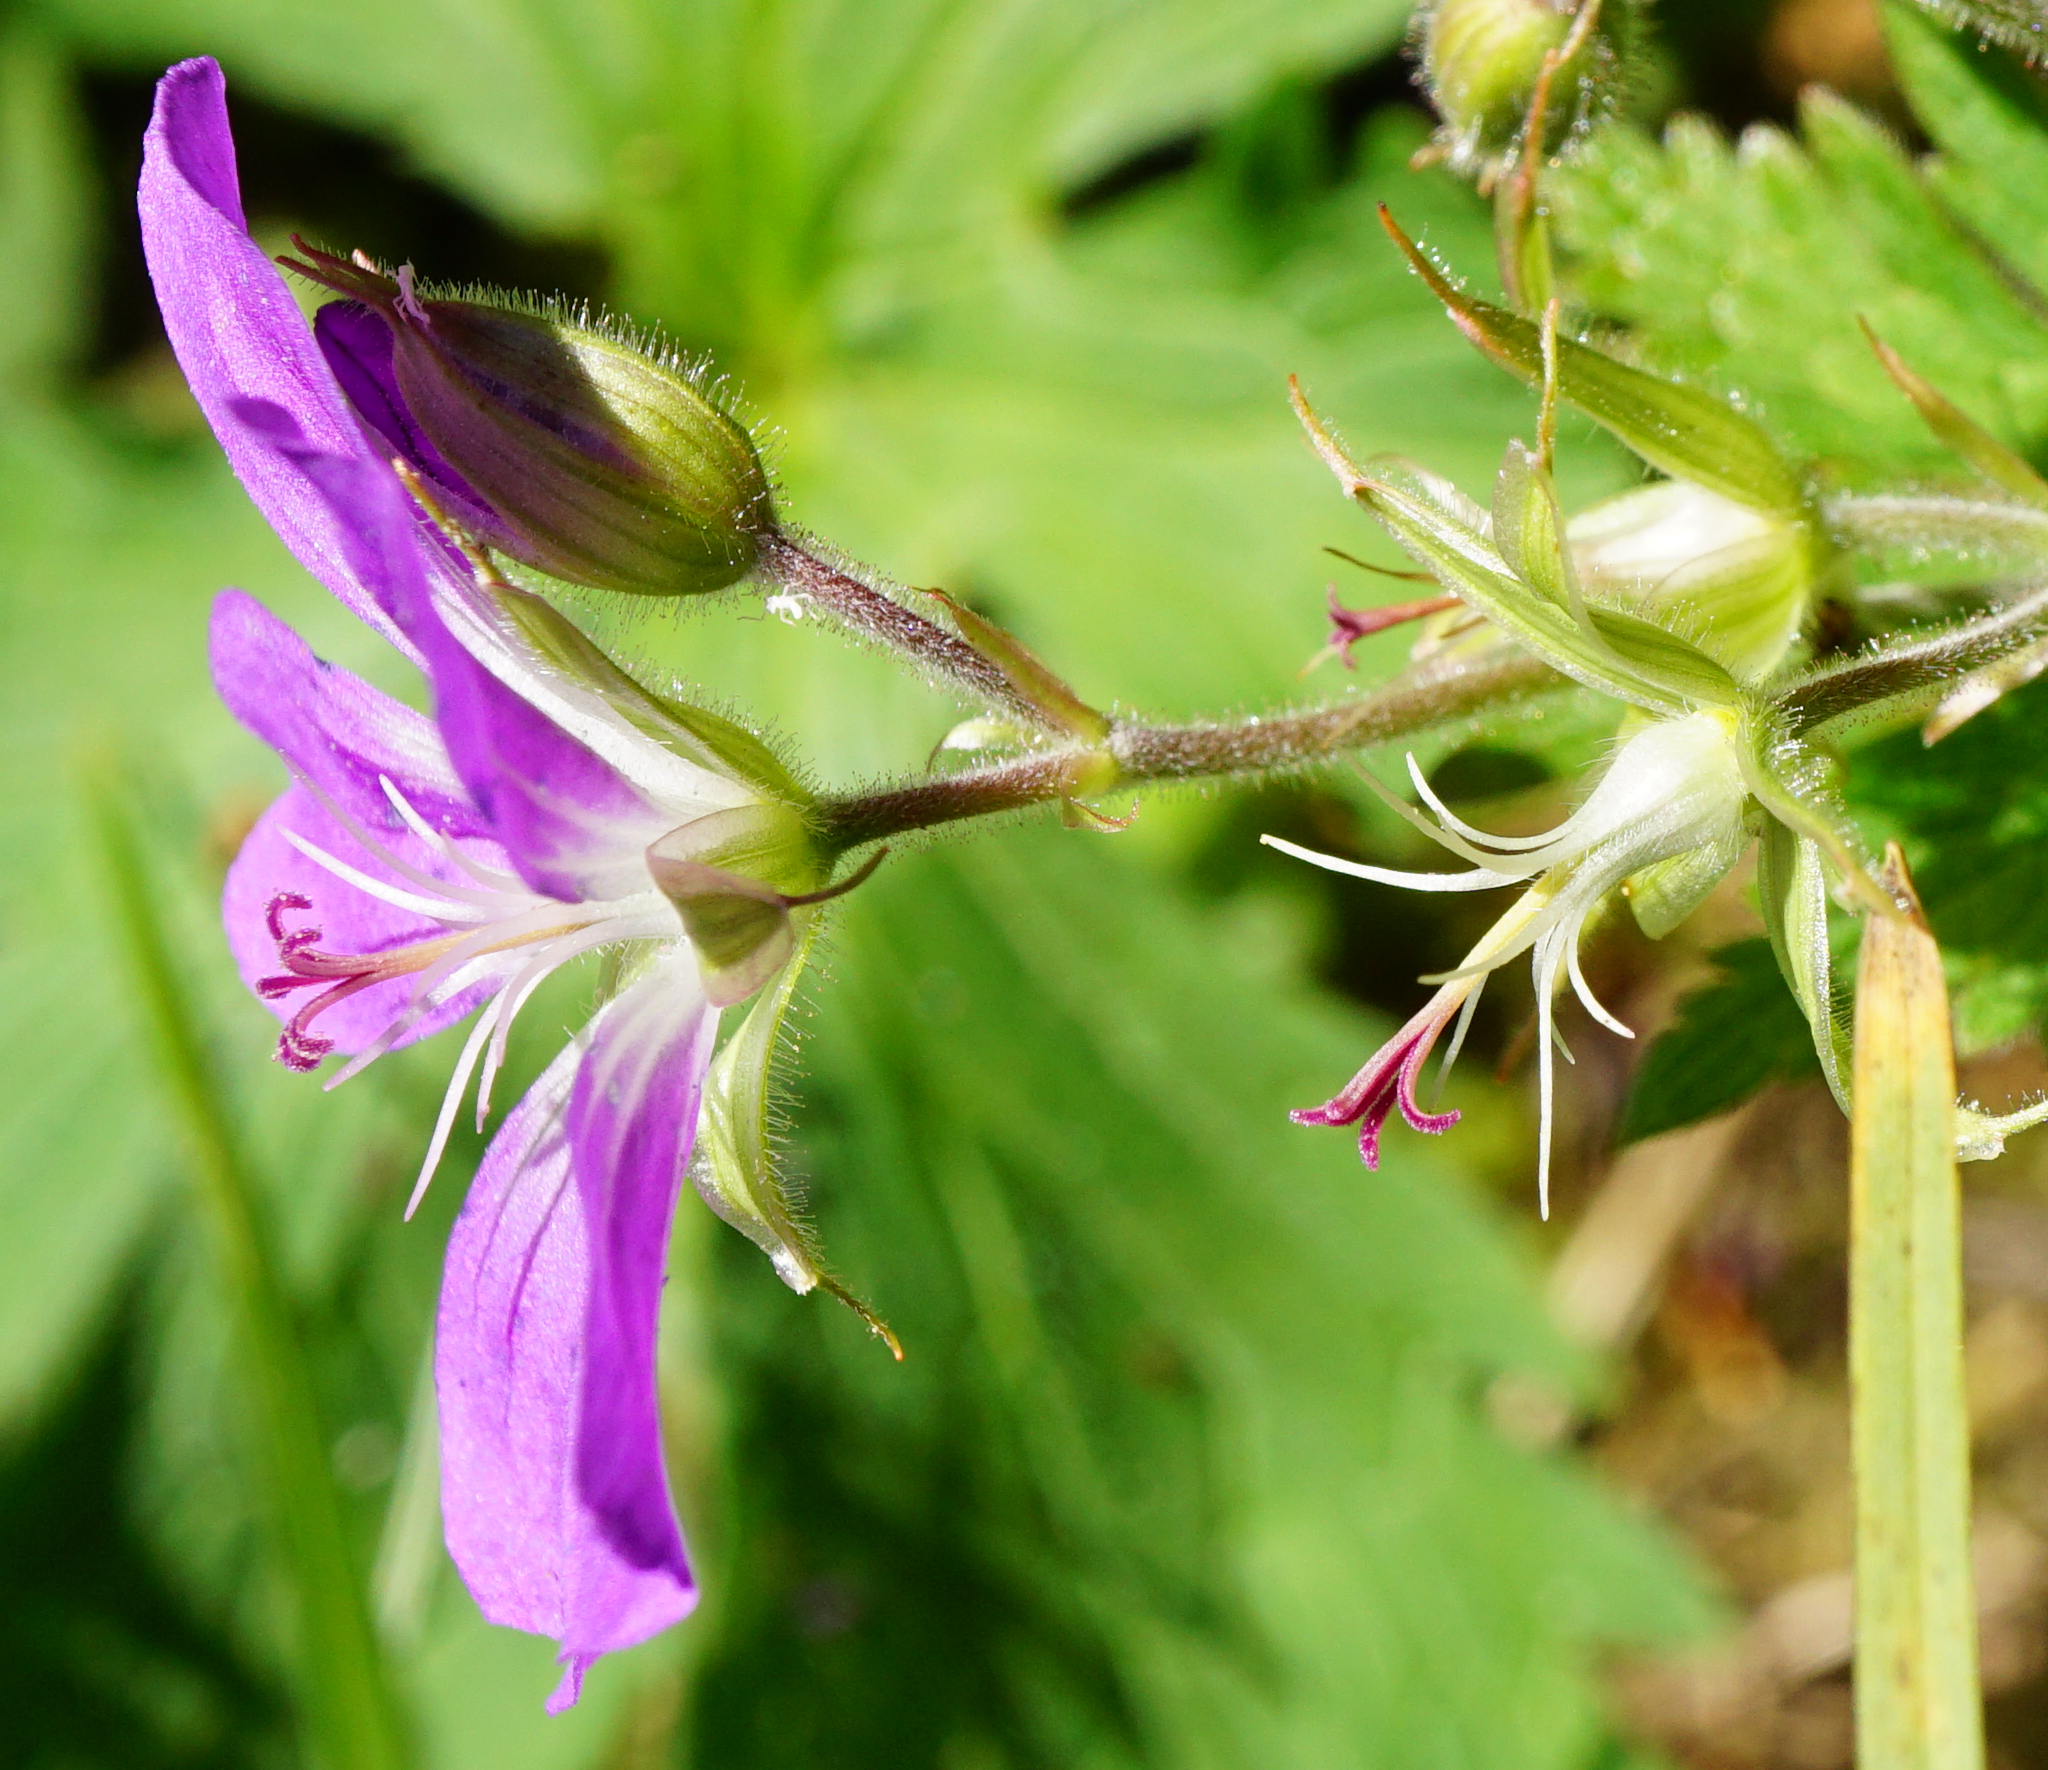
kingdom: Plantae
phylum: Tracheophyta
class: Magnoliopsida
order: Geraniales
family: Geraniaceae
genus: Geranium
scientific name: Geranium sylvaticum
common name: Wood crane's-bill
